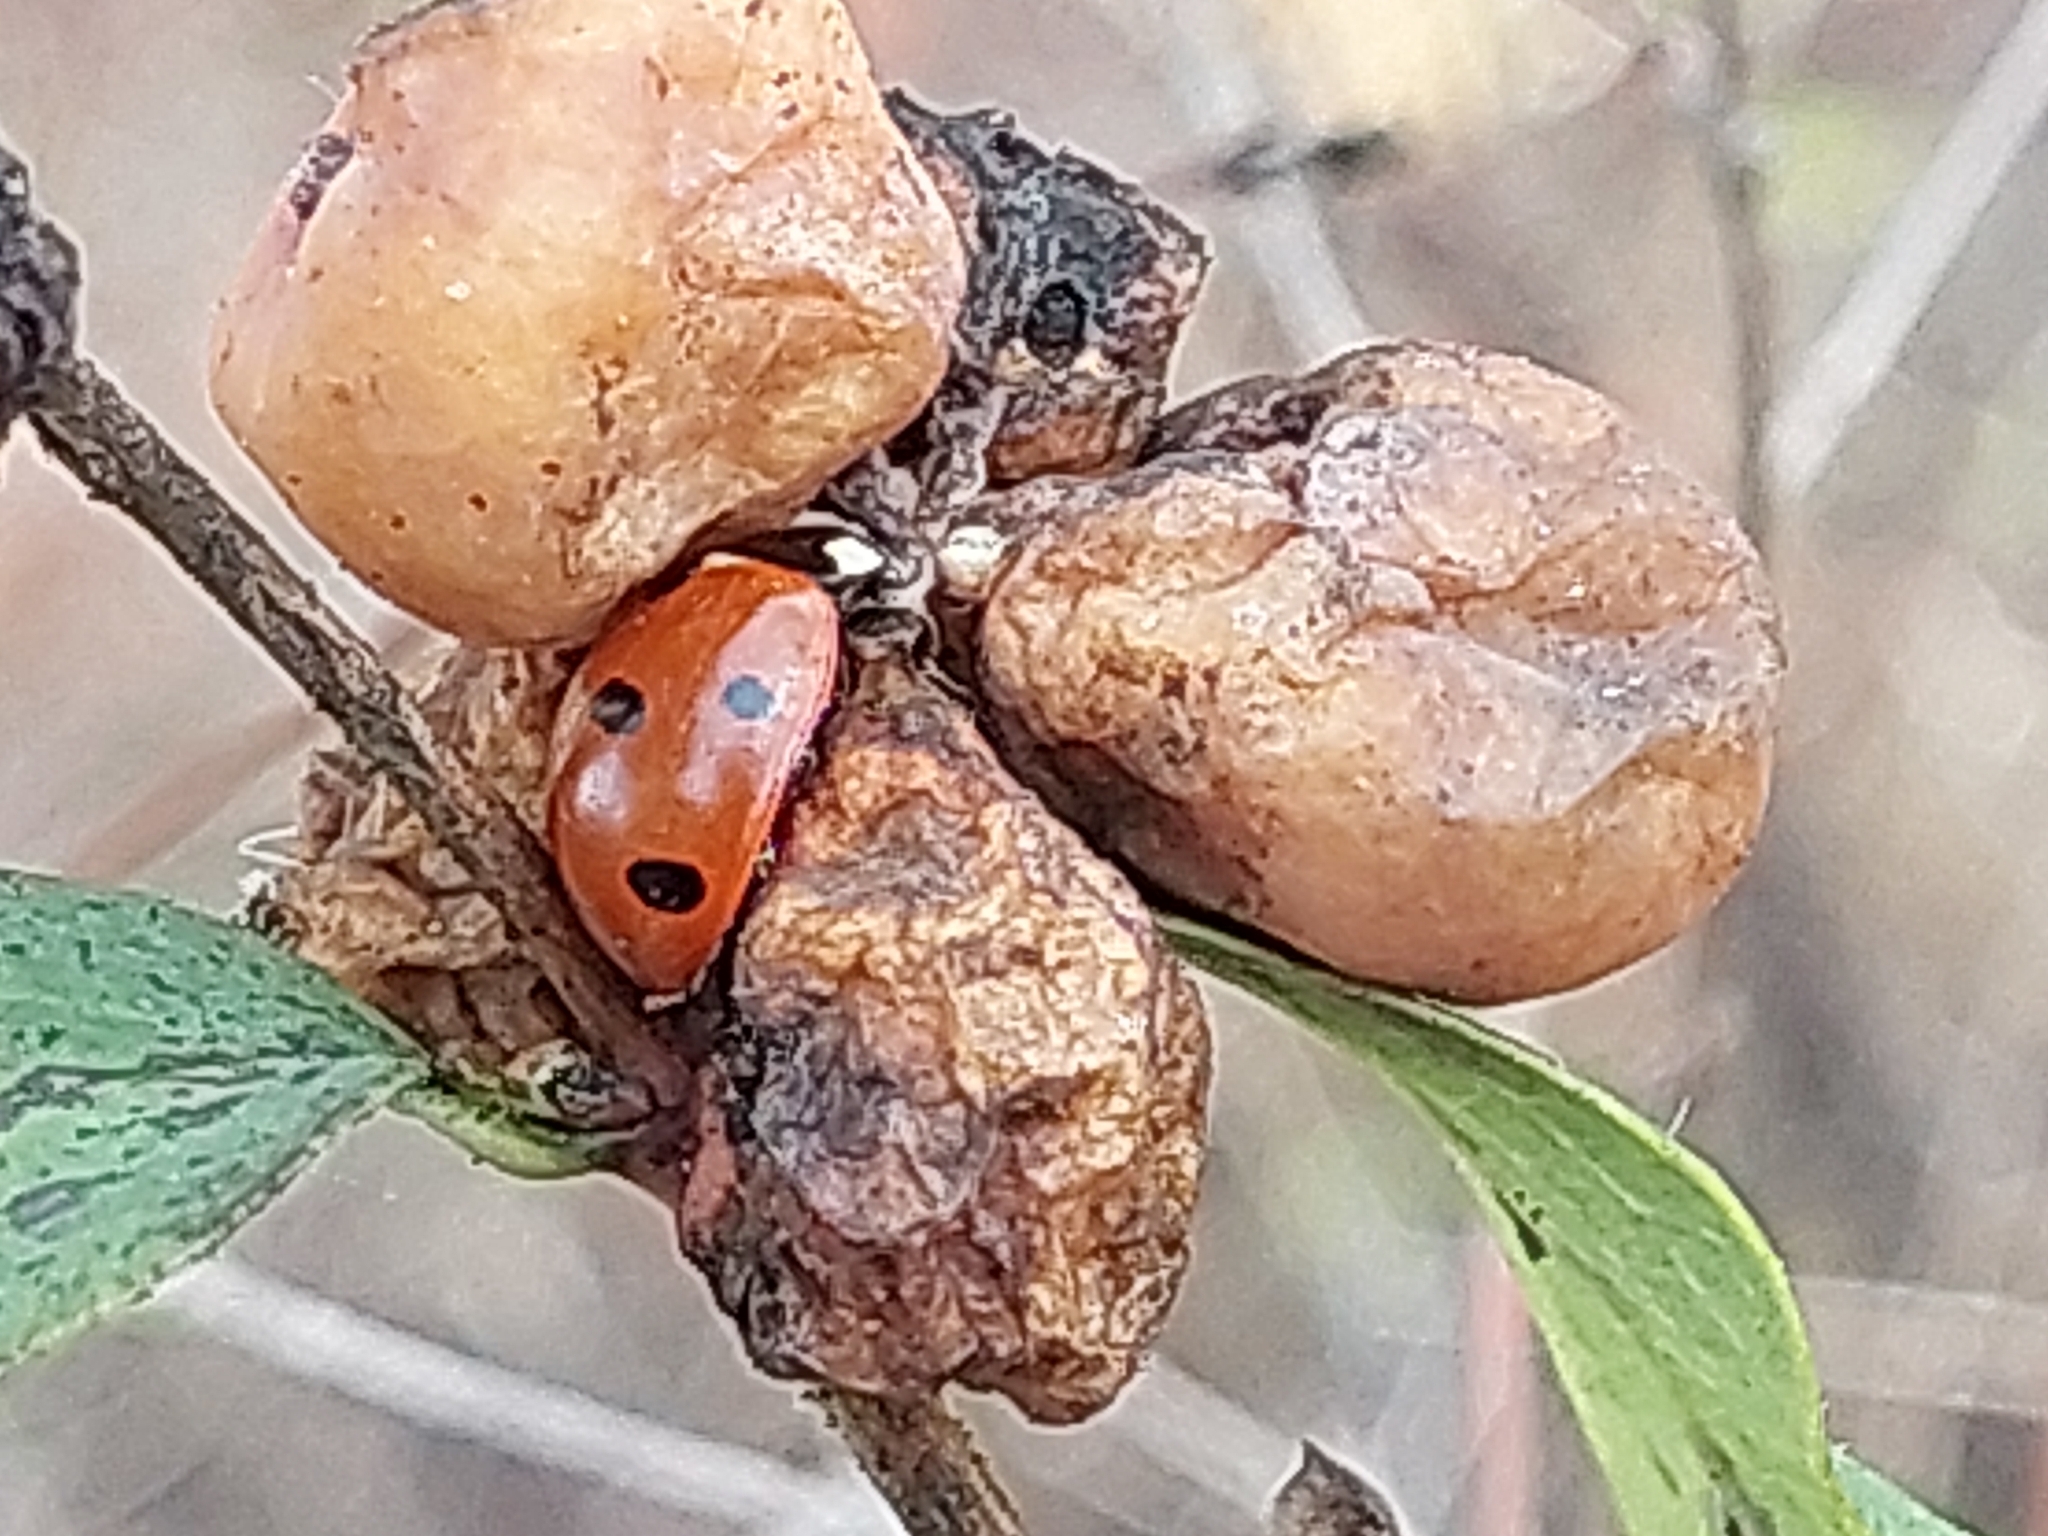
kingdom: Animalia
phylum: Arthropoda
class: Insecta
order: Coleoptera
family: Coccinellidae
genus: Coccinella
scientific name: Coccinella septempunctata
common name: Sevenspotted lady beetle
